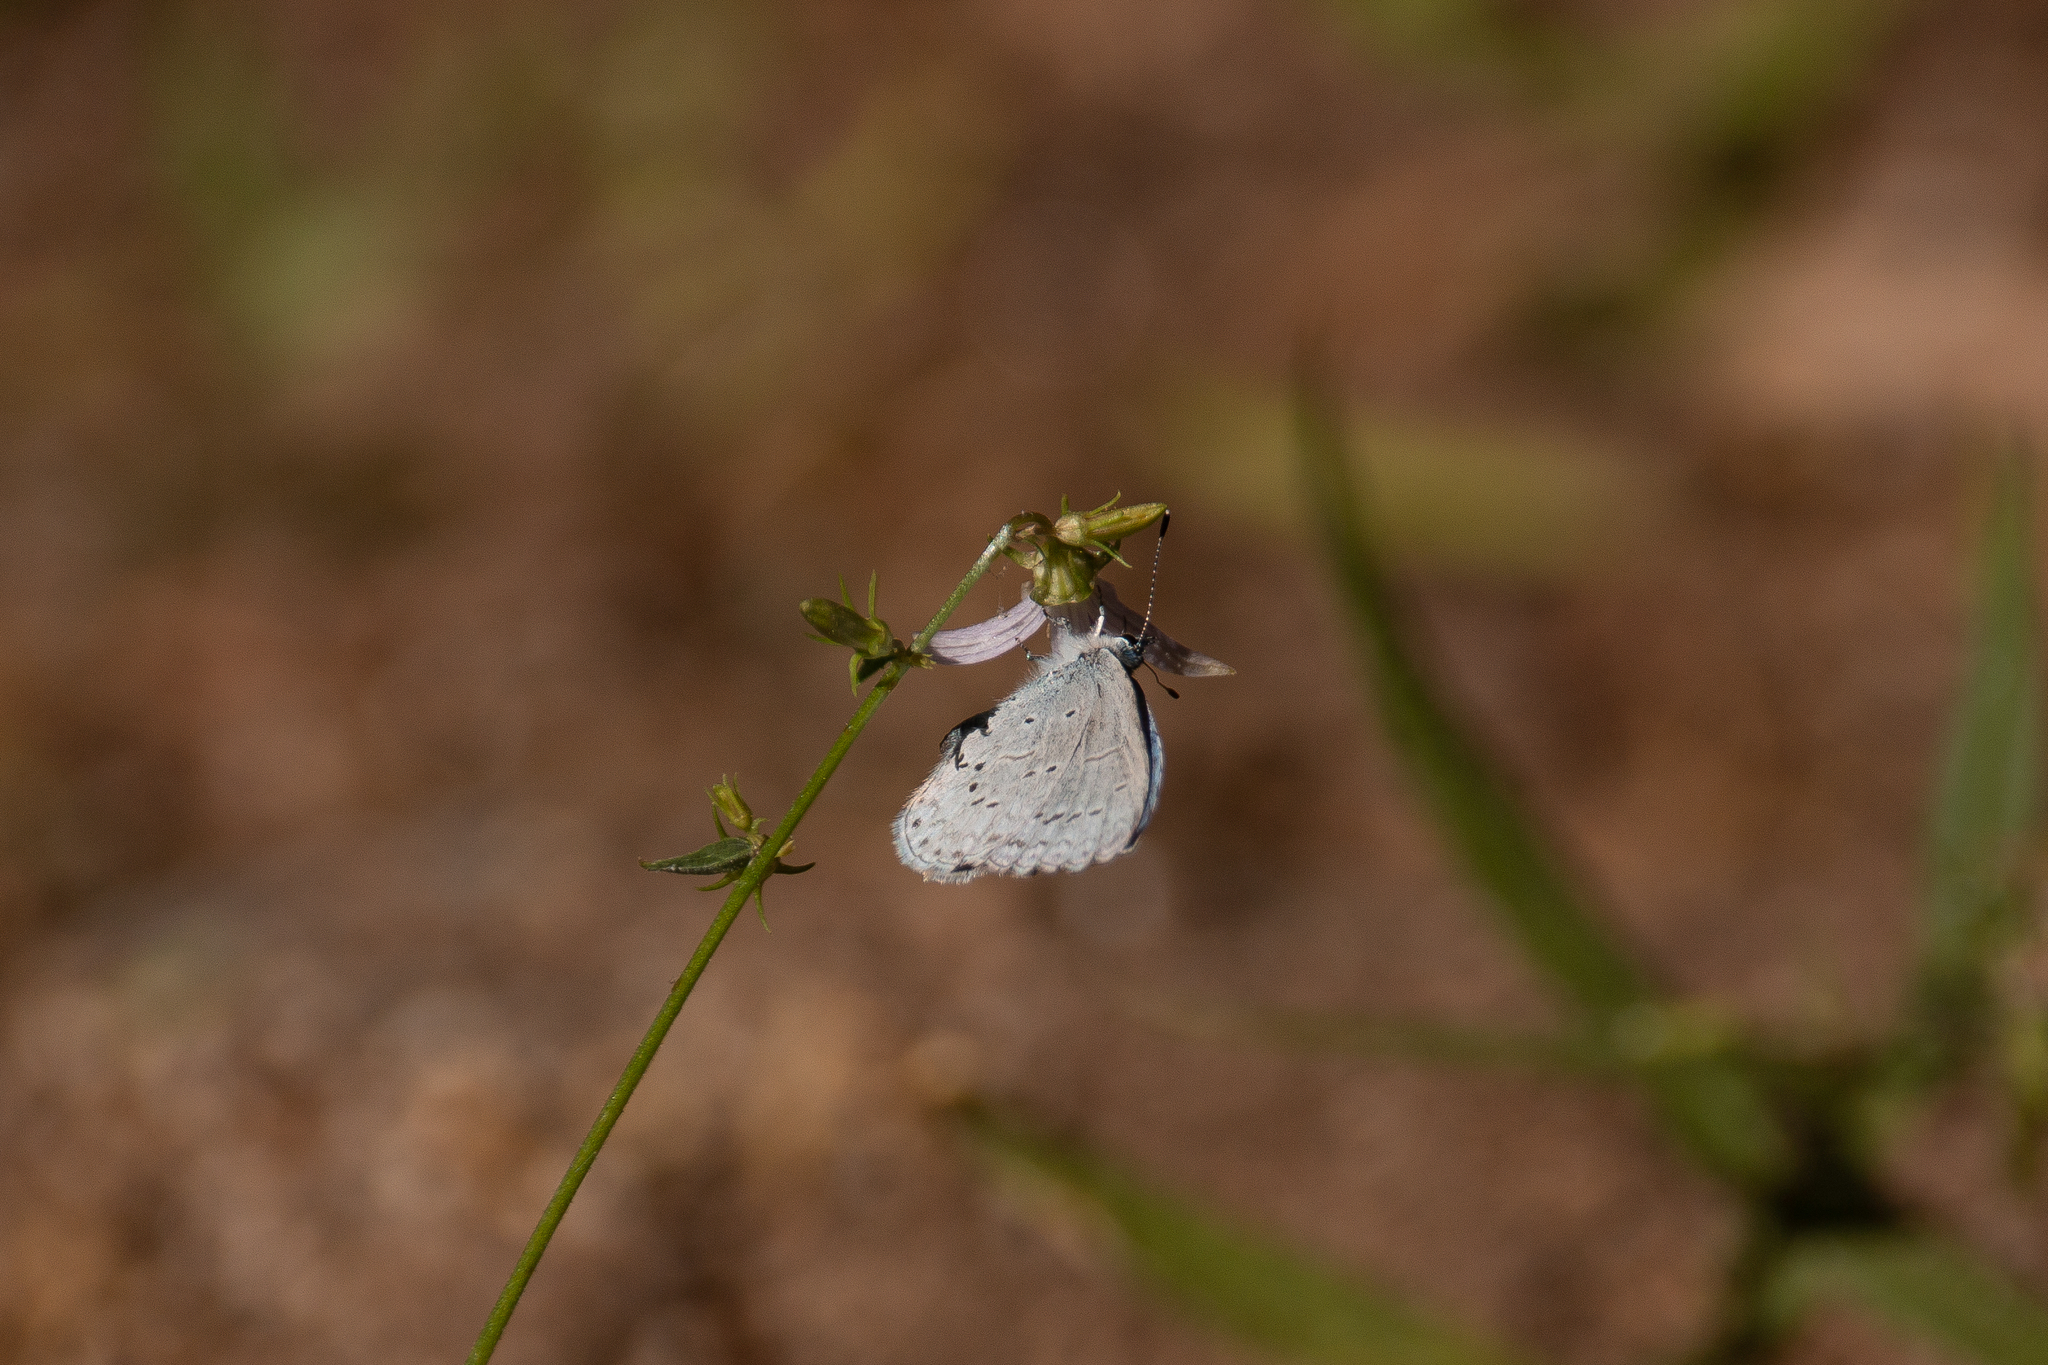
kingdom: Animalia
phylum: Arthropoda
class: Insecta
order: Lepidoptera
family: Lycaenidae
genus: Celastrina
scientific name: Celastrina ladon
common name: Spring azure
